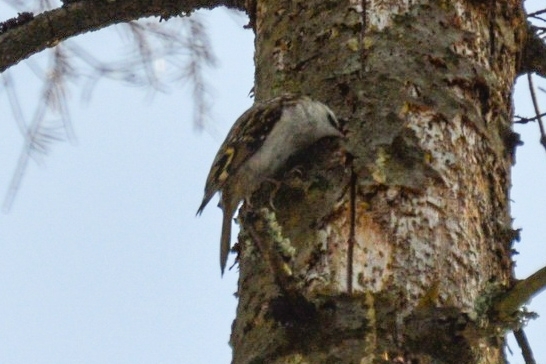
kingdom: Animalia
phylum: Chordata
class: Aves
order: Passeriformes
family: Certhiidae
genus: Certhia
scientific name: Certhia familiaris
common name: Eurasian treecreeper
